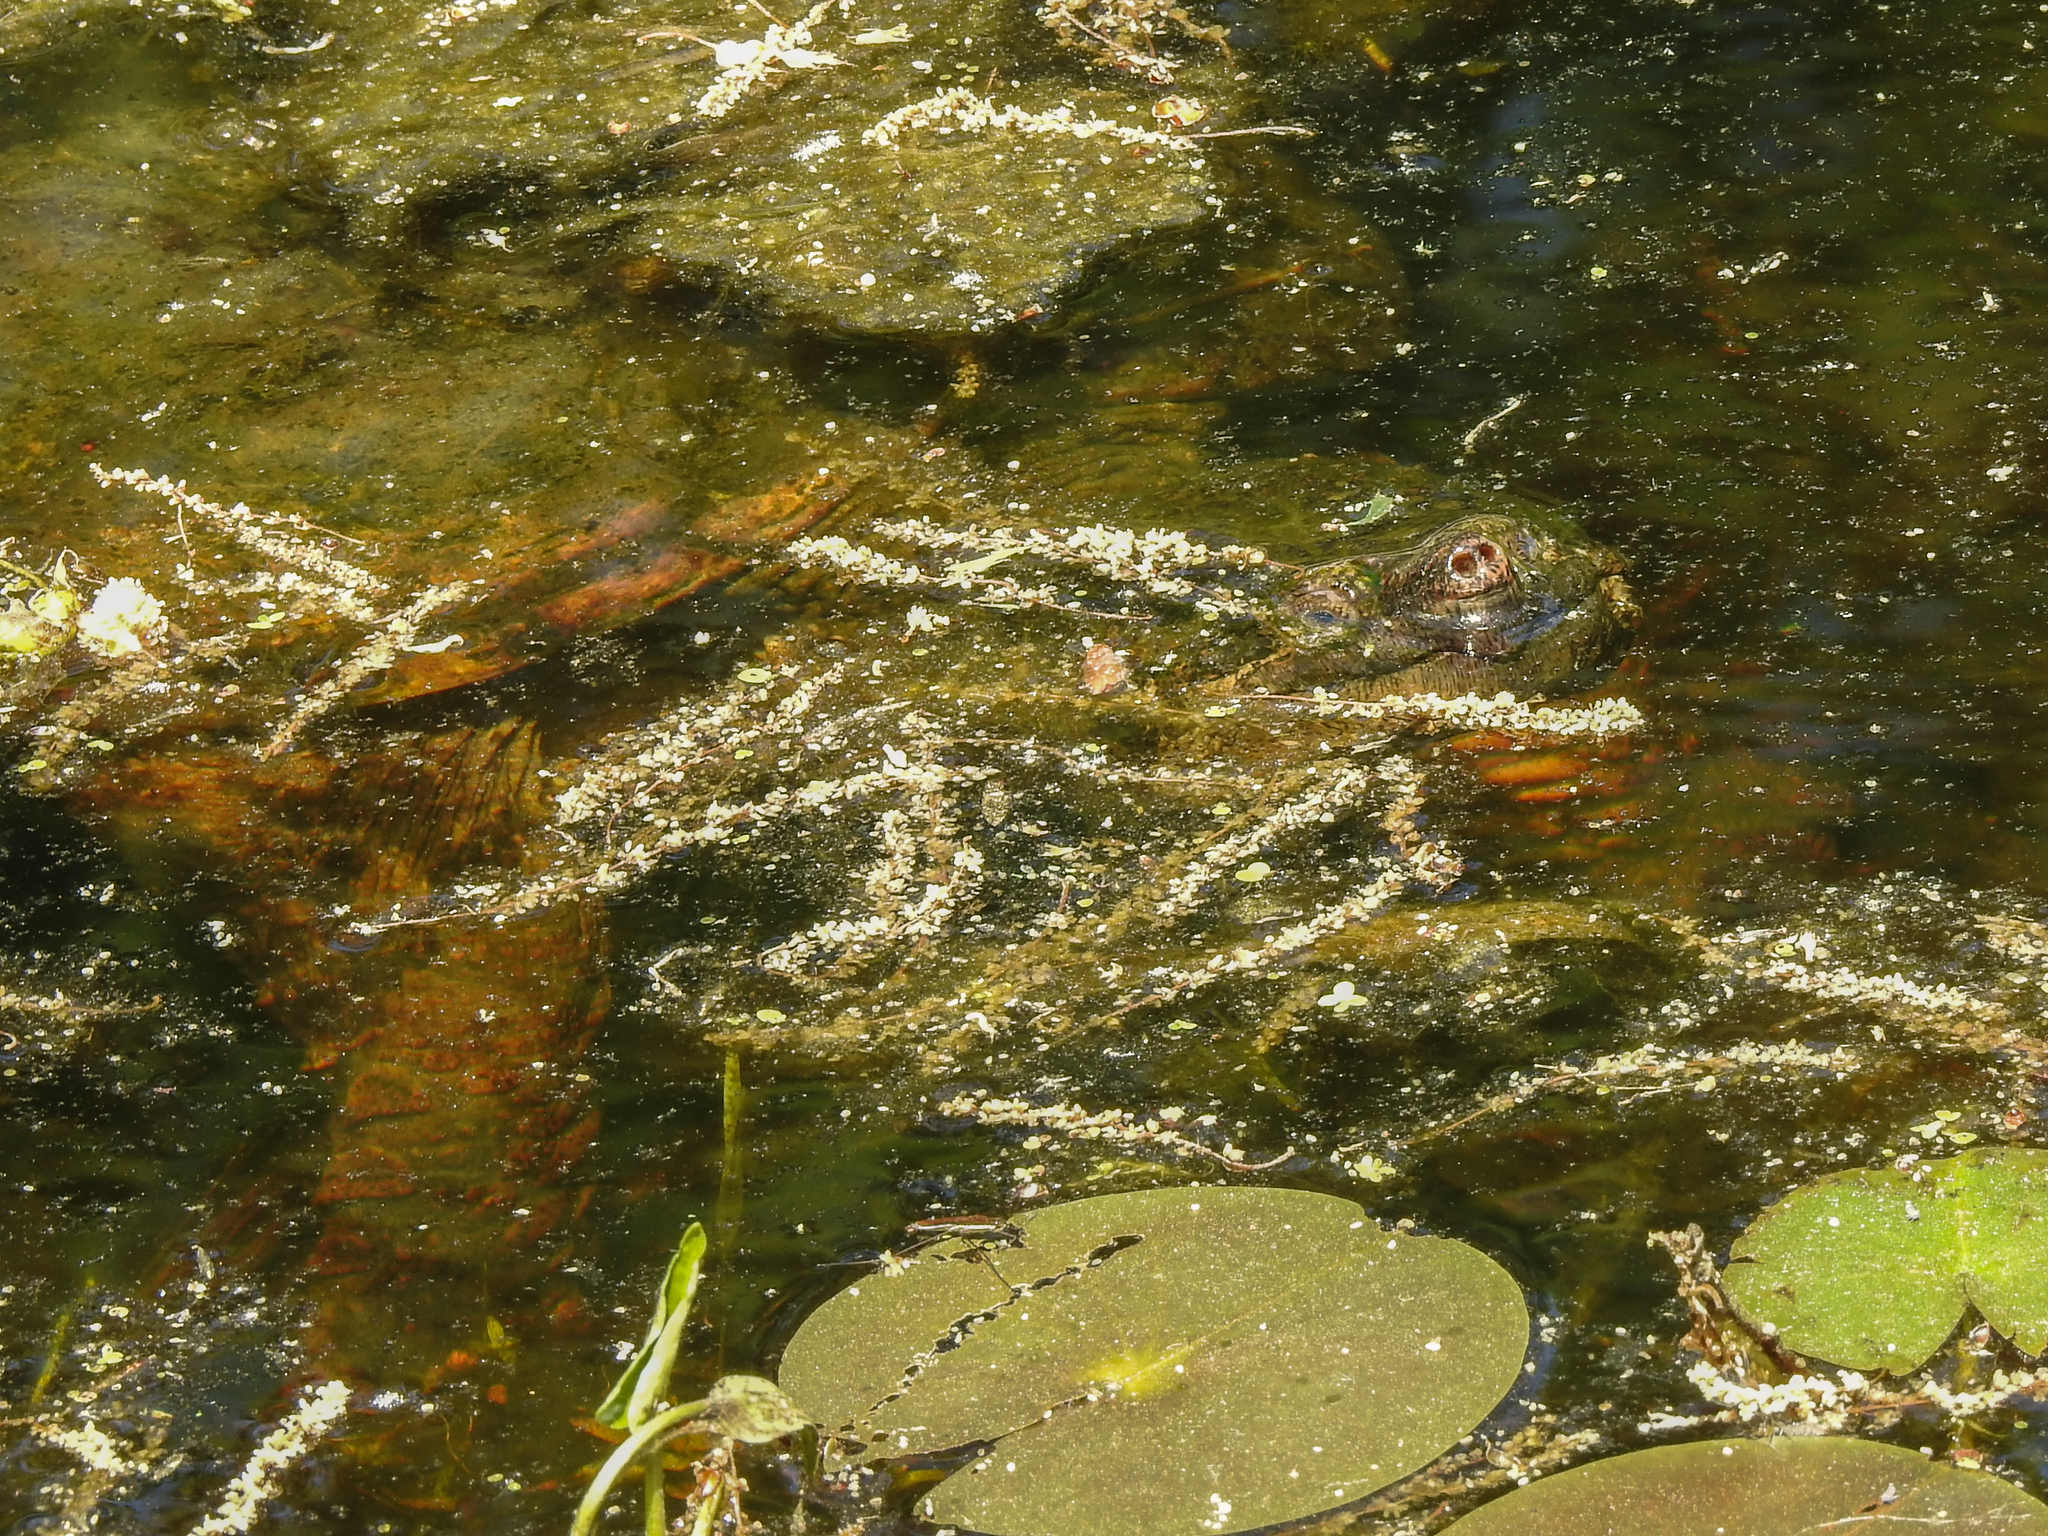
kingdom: Animalia
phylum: Chordata
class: Testudines
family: Chelydridae
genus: Chelydra
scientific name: Chelydra serpentina
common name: Common snapping turtle
